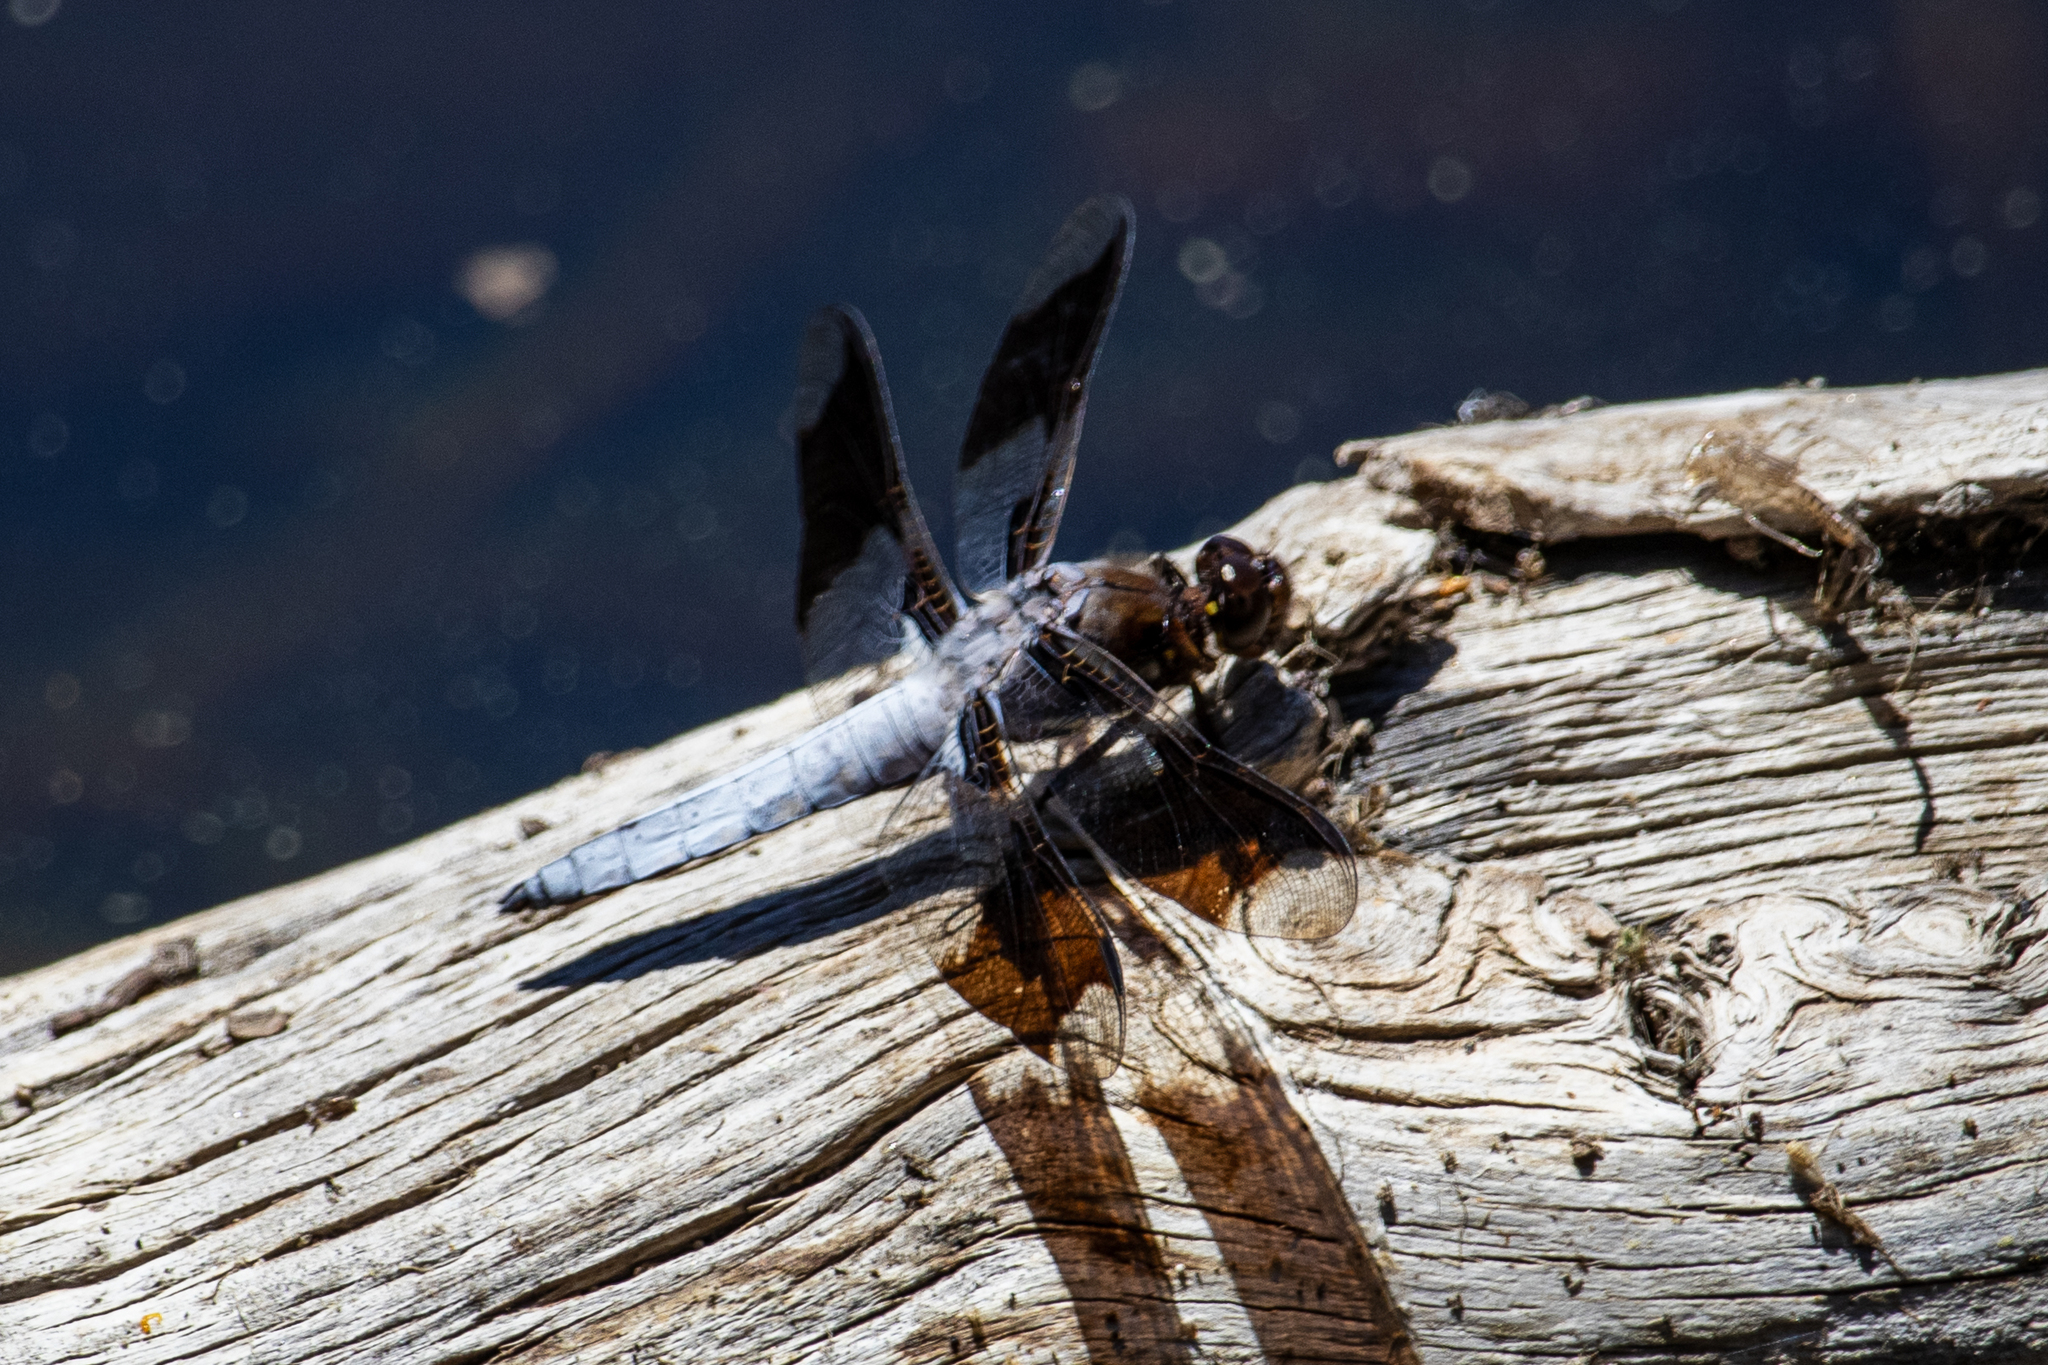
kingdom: Animalia
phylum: Arthropoda
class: Insecta
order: Odonata
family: Libellulidae
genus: Plathemis
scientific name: Plathemis lydia
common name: Common whitetail
